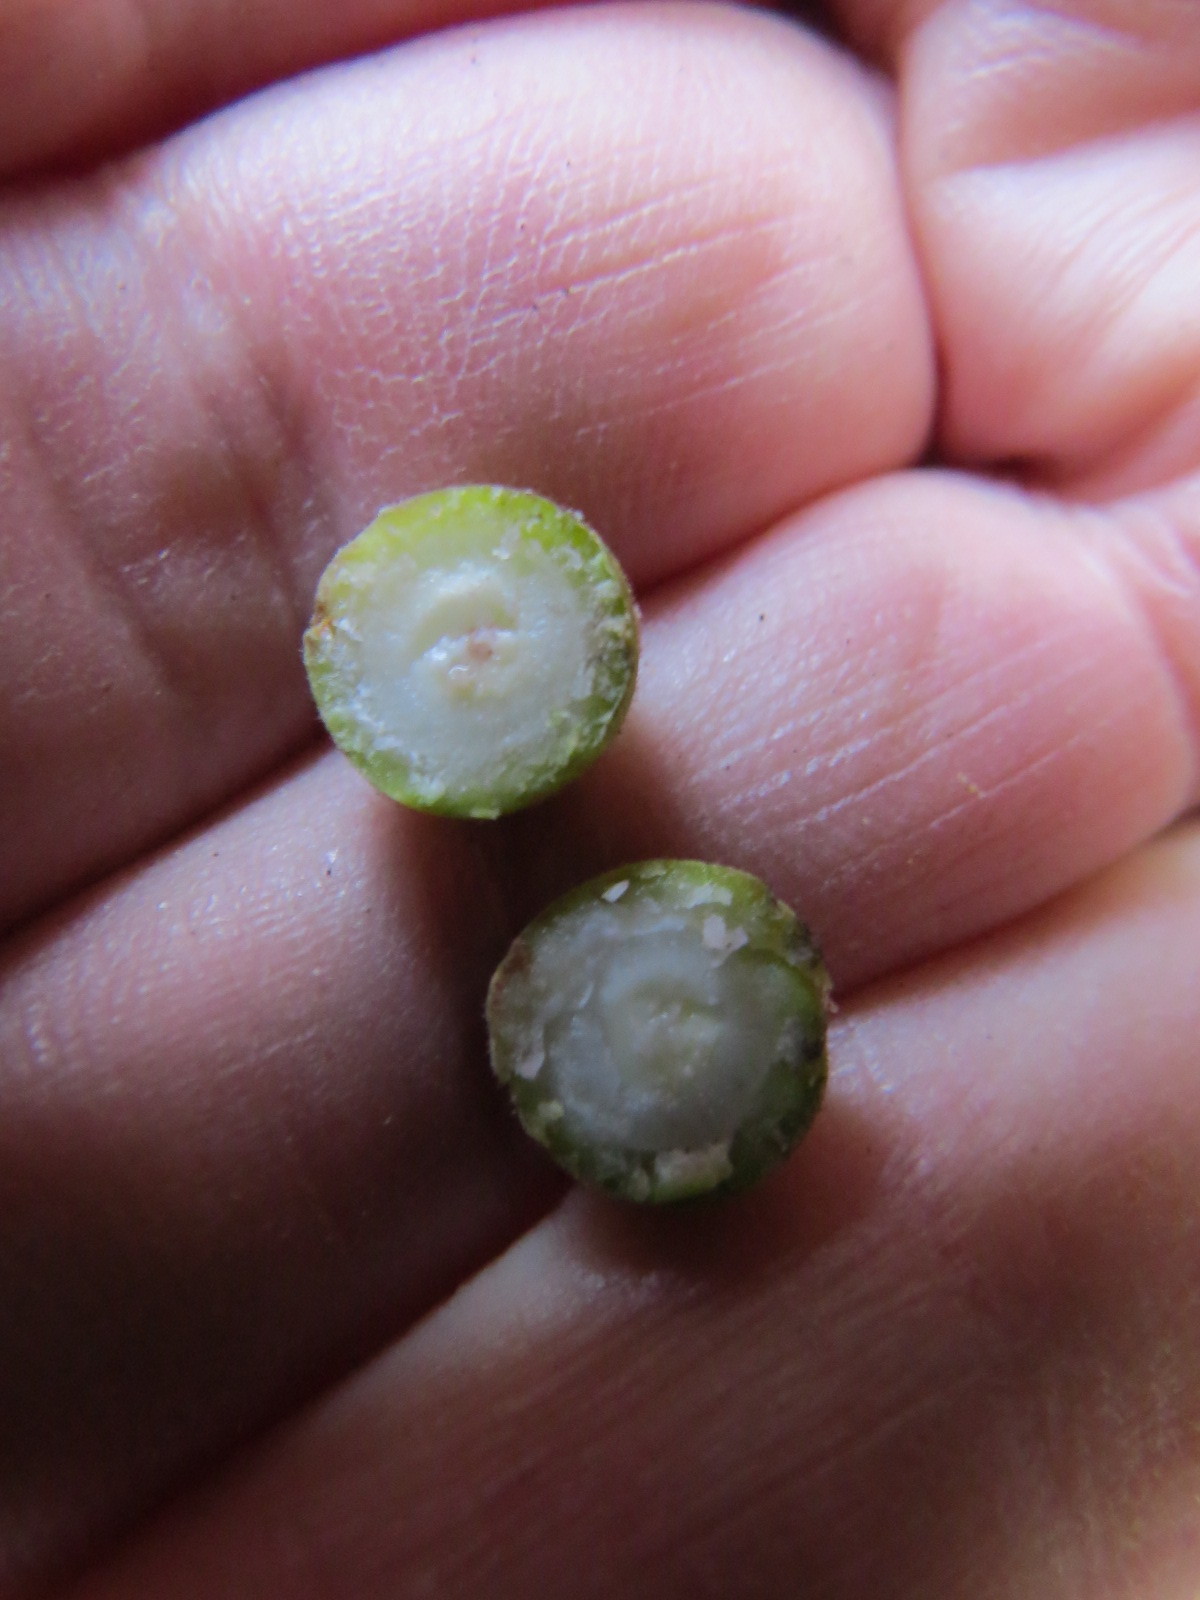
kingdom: Animalia
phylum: Arthropoda
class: Insecta
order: Hymenoptera
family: Cynipidae
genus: Callirhytis
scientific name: Callirhytis
